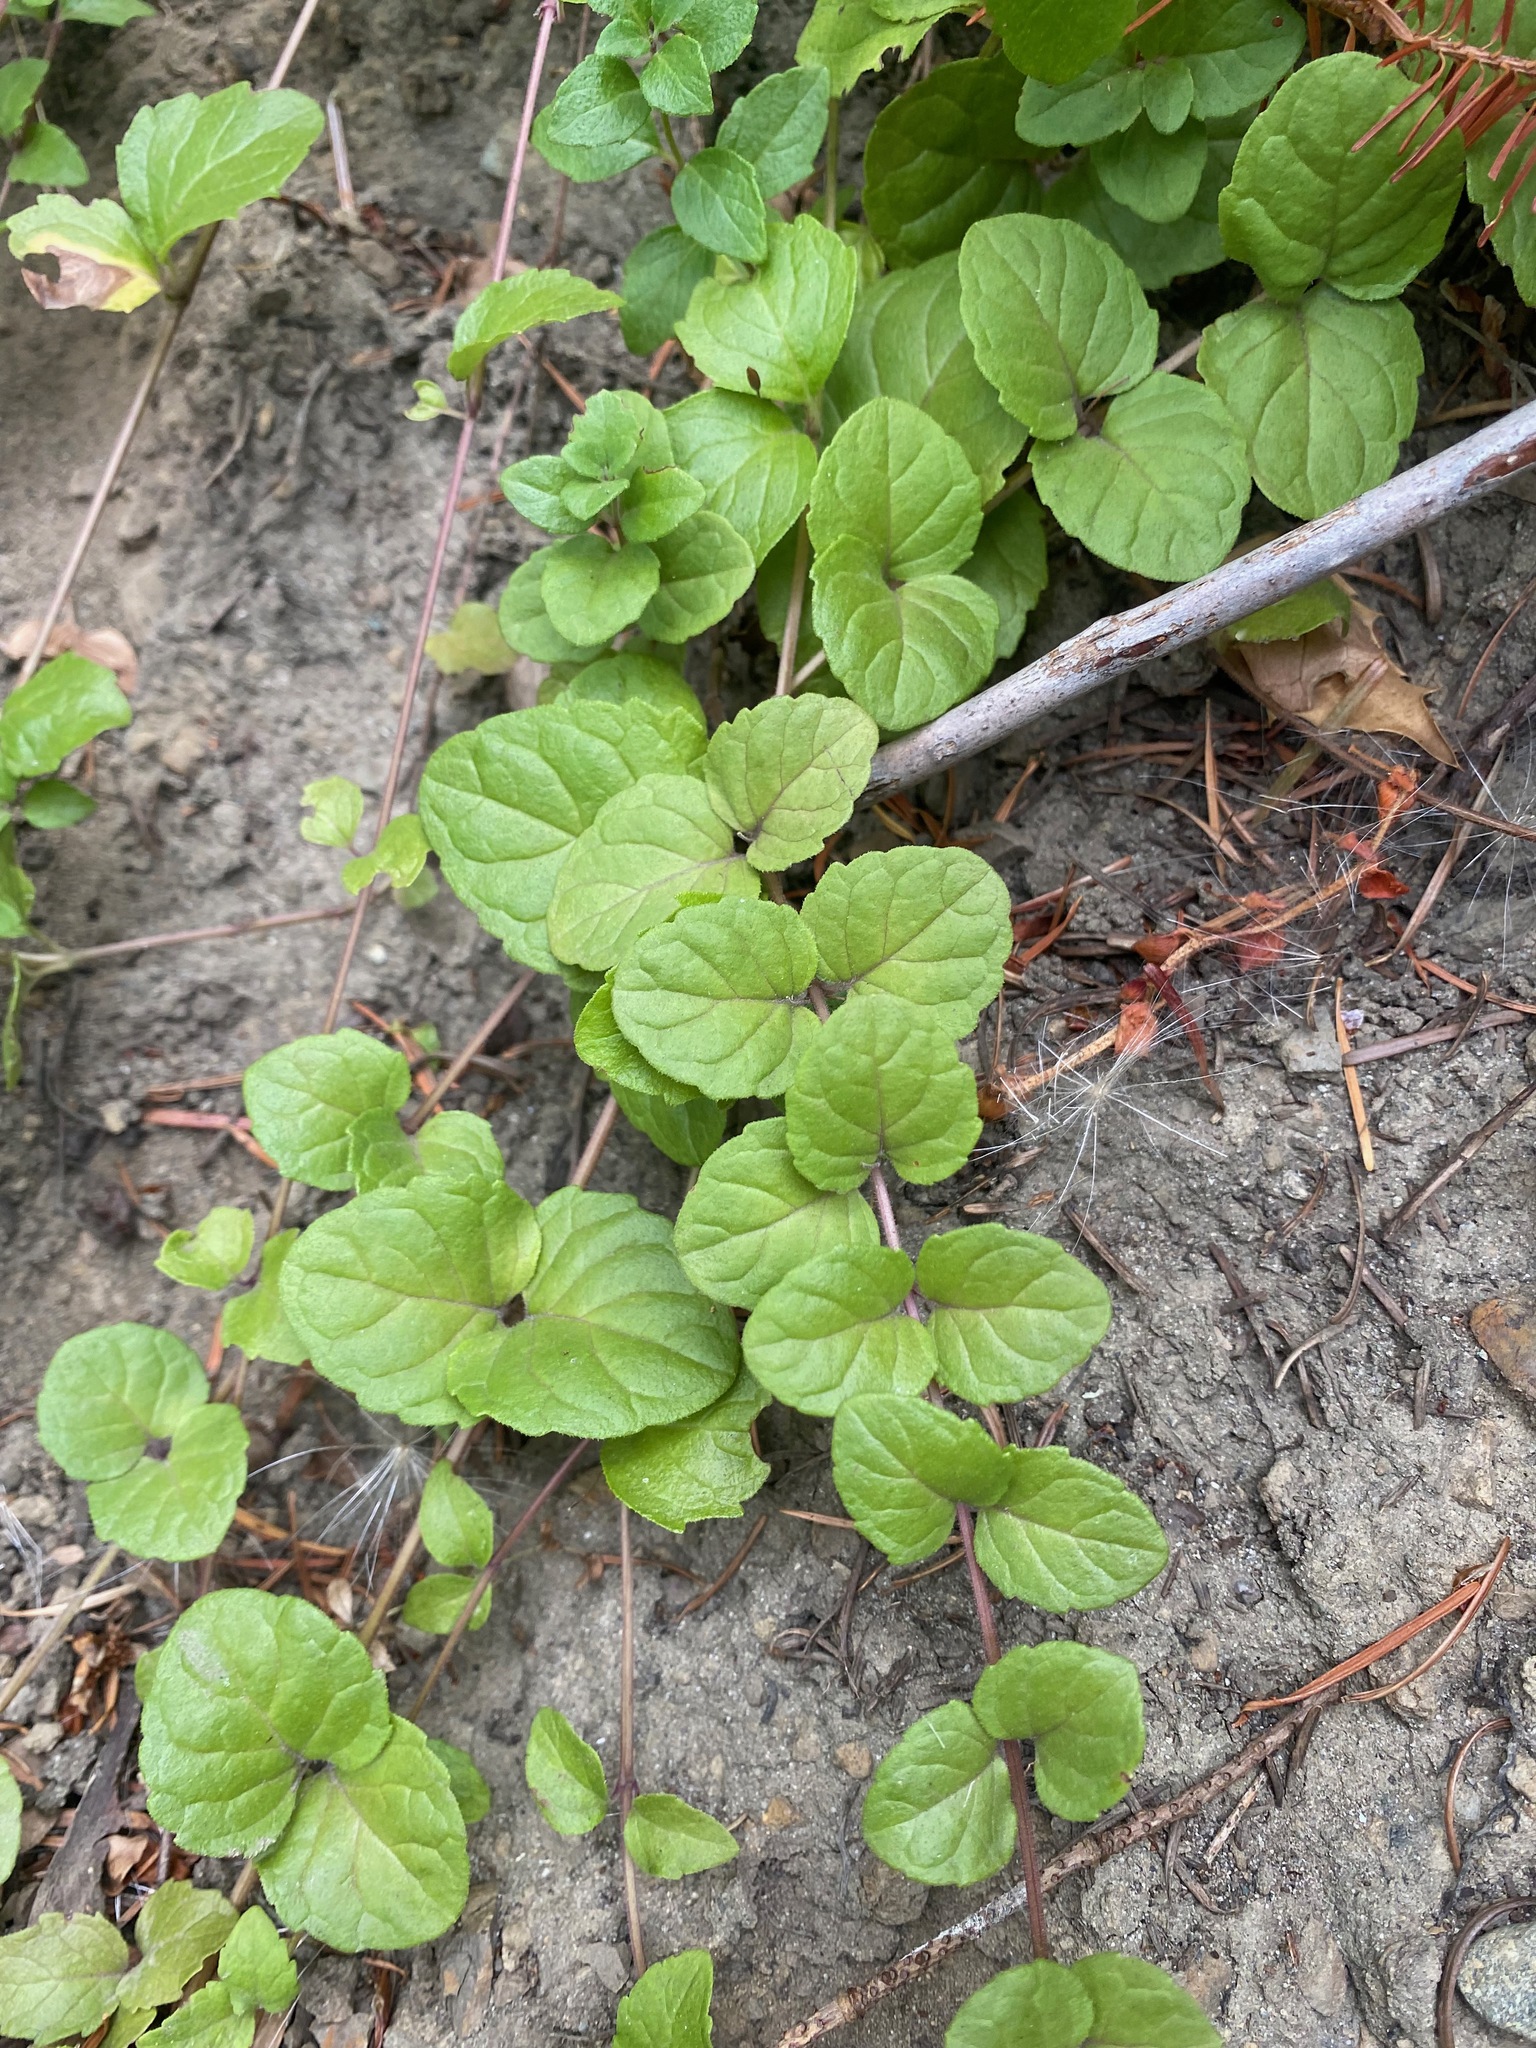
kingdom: Plantae
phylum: Tracheophyta
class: Magnoliopsida
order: Lamiales
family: Lamiaceae
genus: Micromeria
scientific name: Micromeria douglasii
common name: Yerba buena
